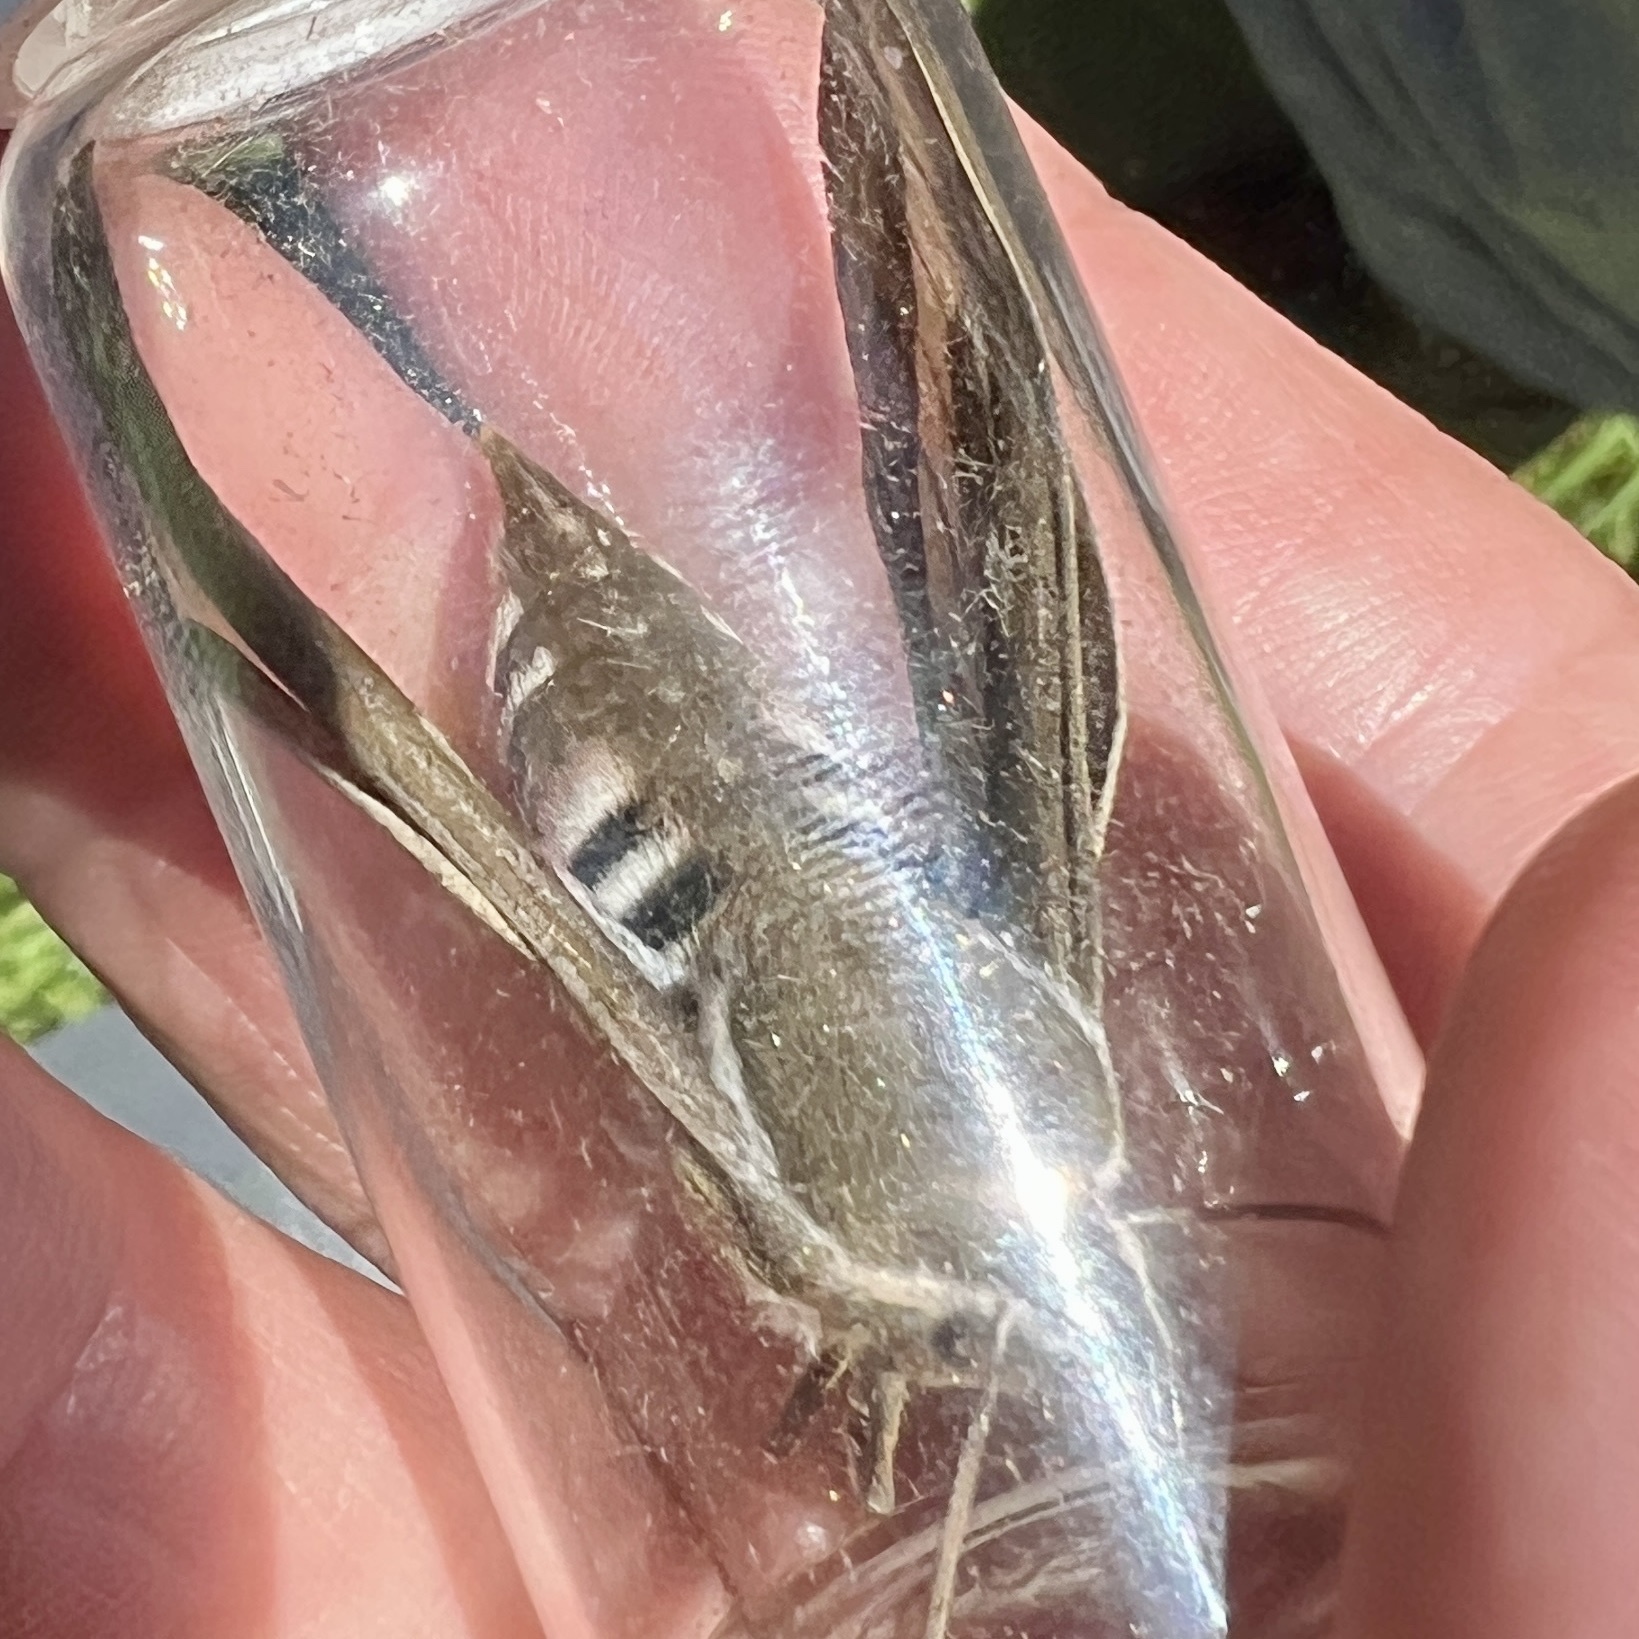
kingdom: Animalia
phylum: Arthropoda
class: Insecta
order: Lepidoptera
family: Sphingidae
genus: Hyles
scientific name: Hyles gallii
